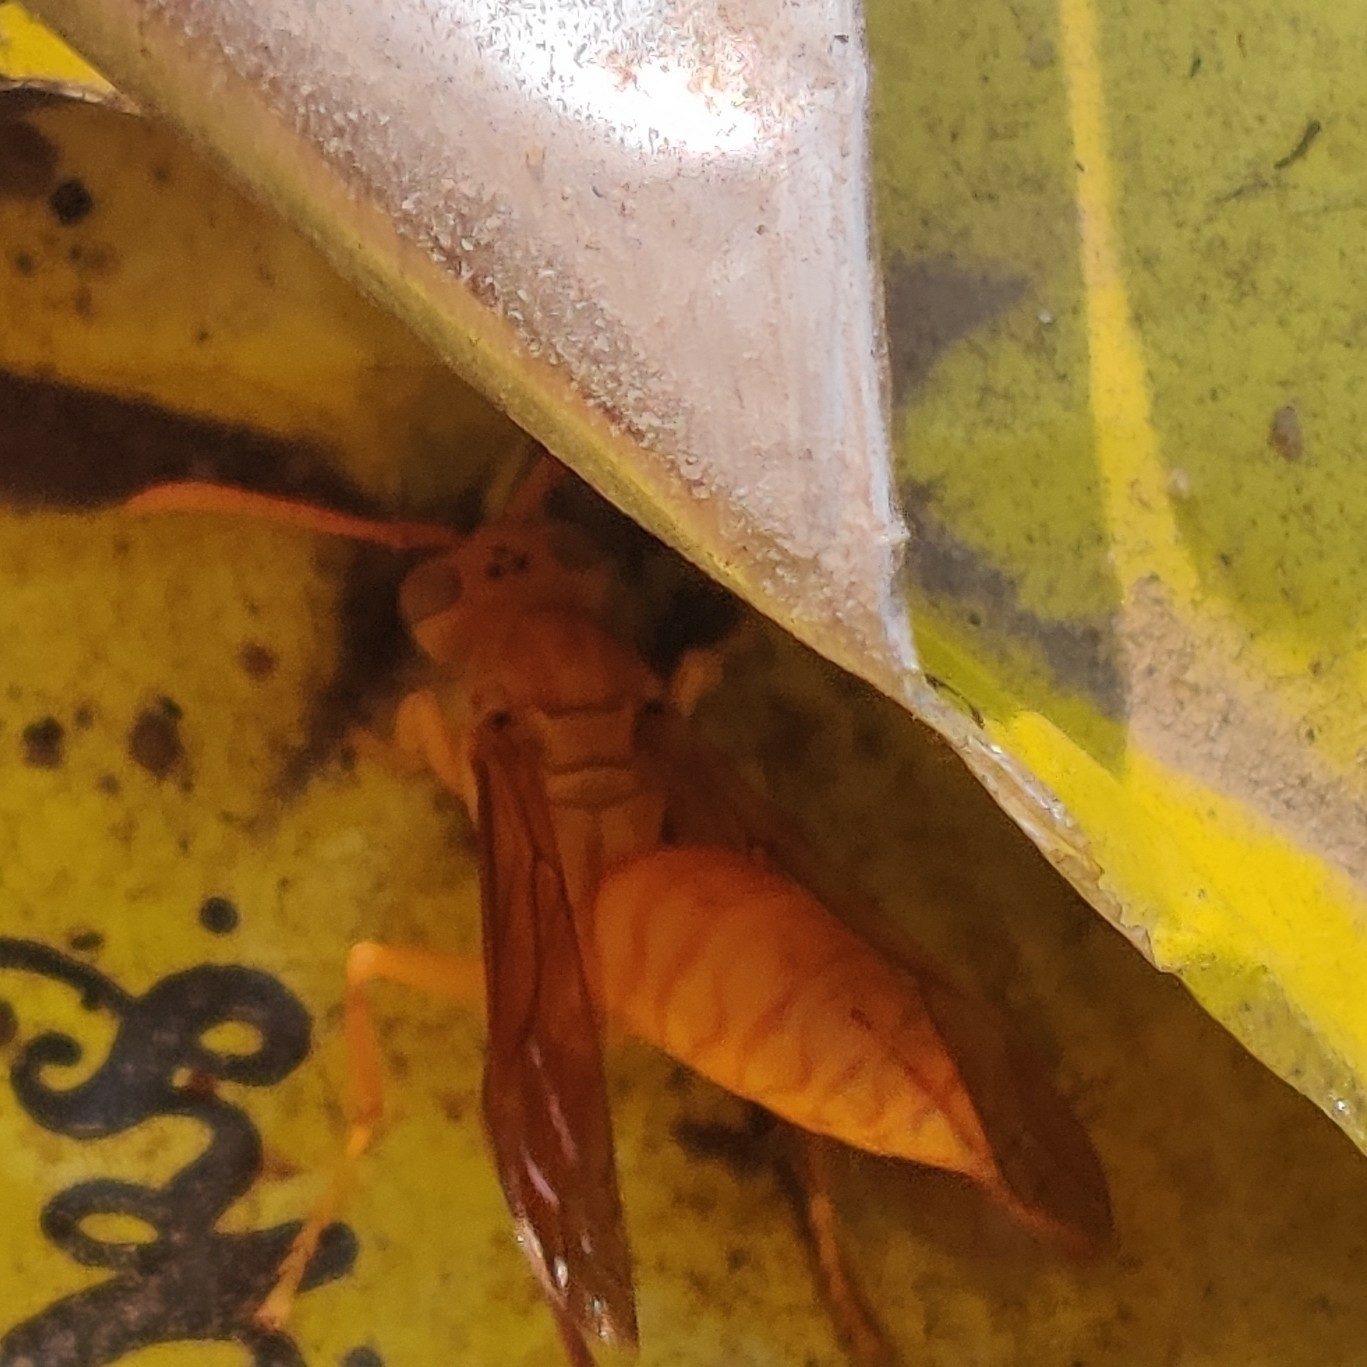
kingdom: Animalia
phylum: Arthropoda
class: Insecta
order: Hymenoptera
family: Eumenidae
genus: Polistes
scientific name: Polistes wattii
